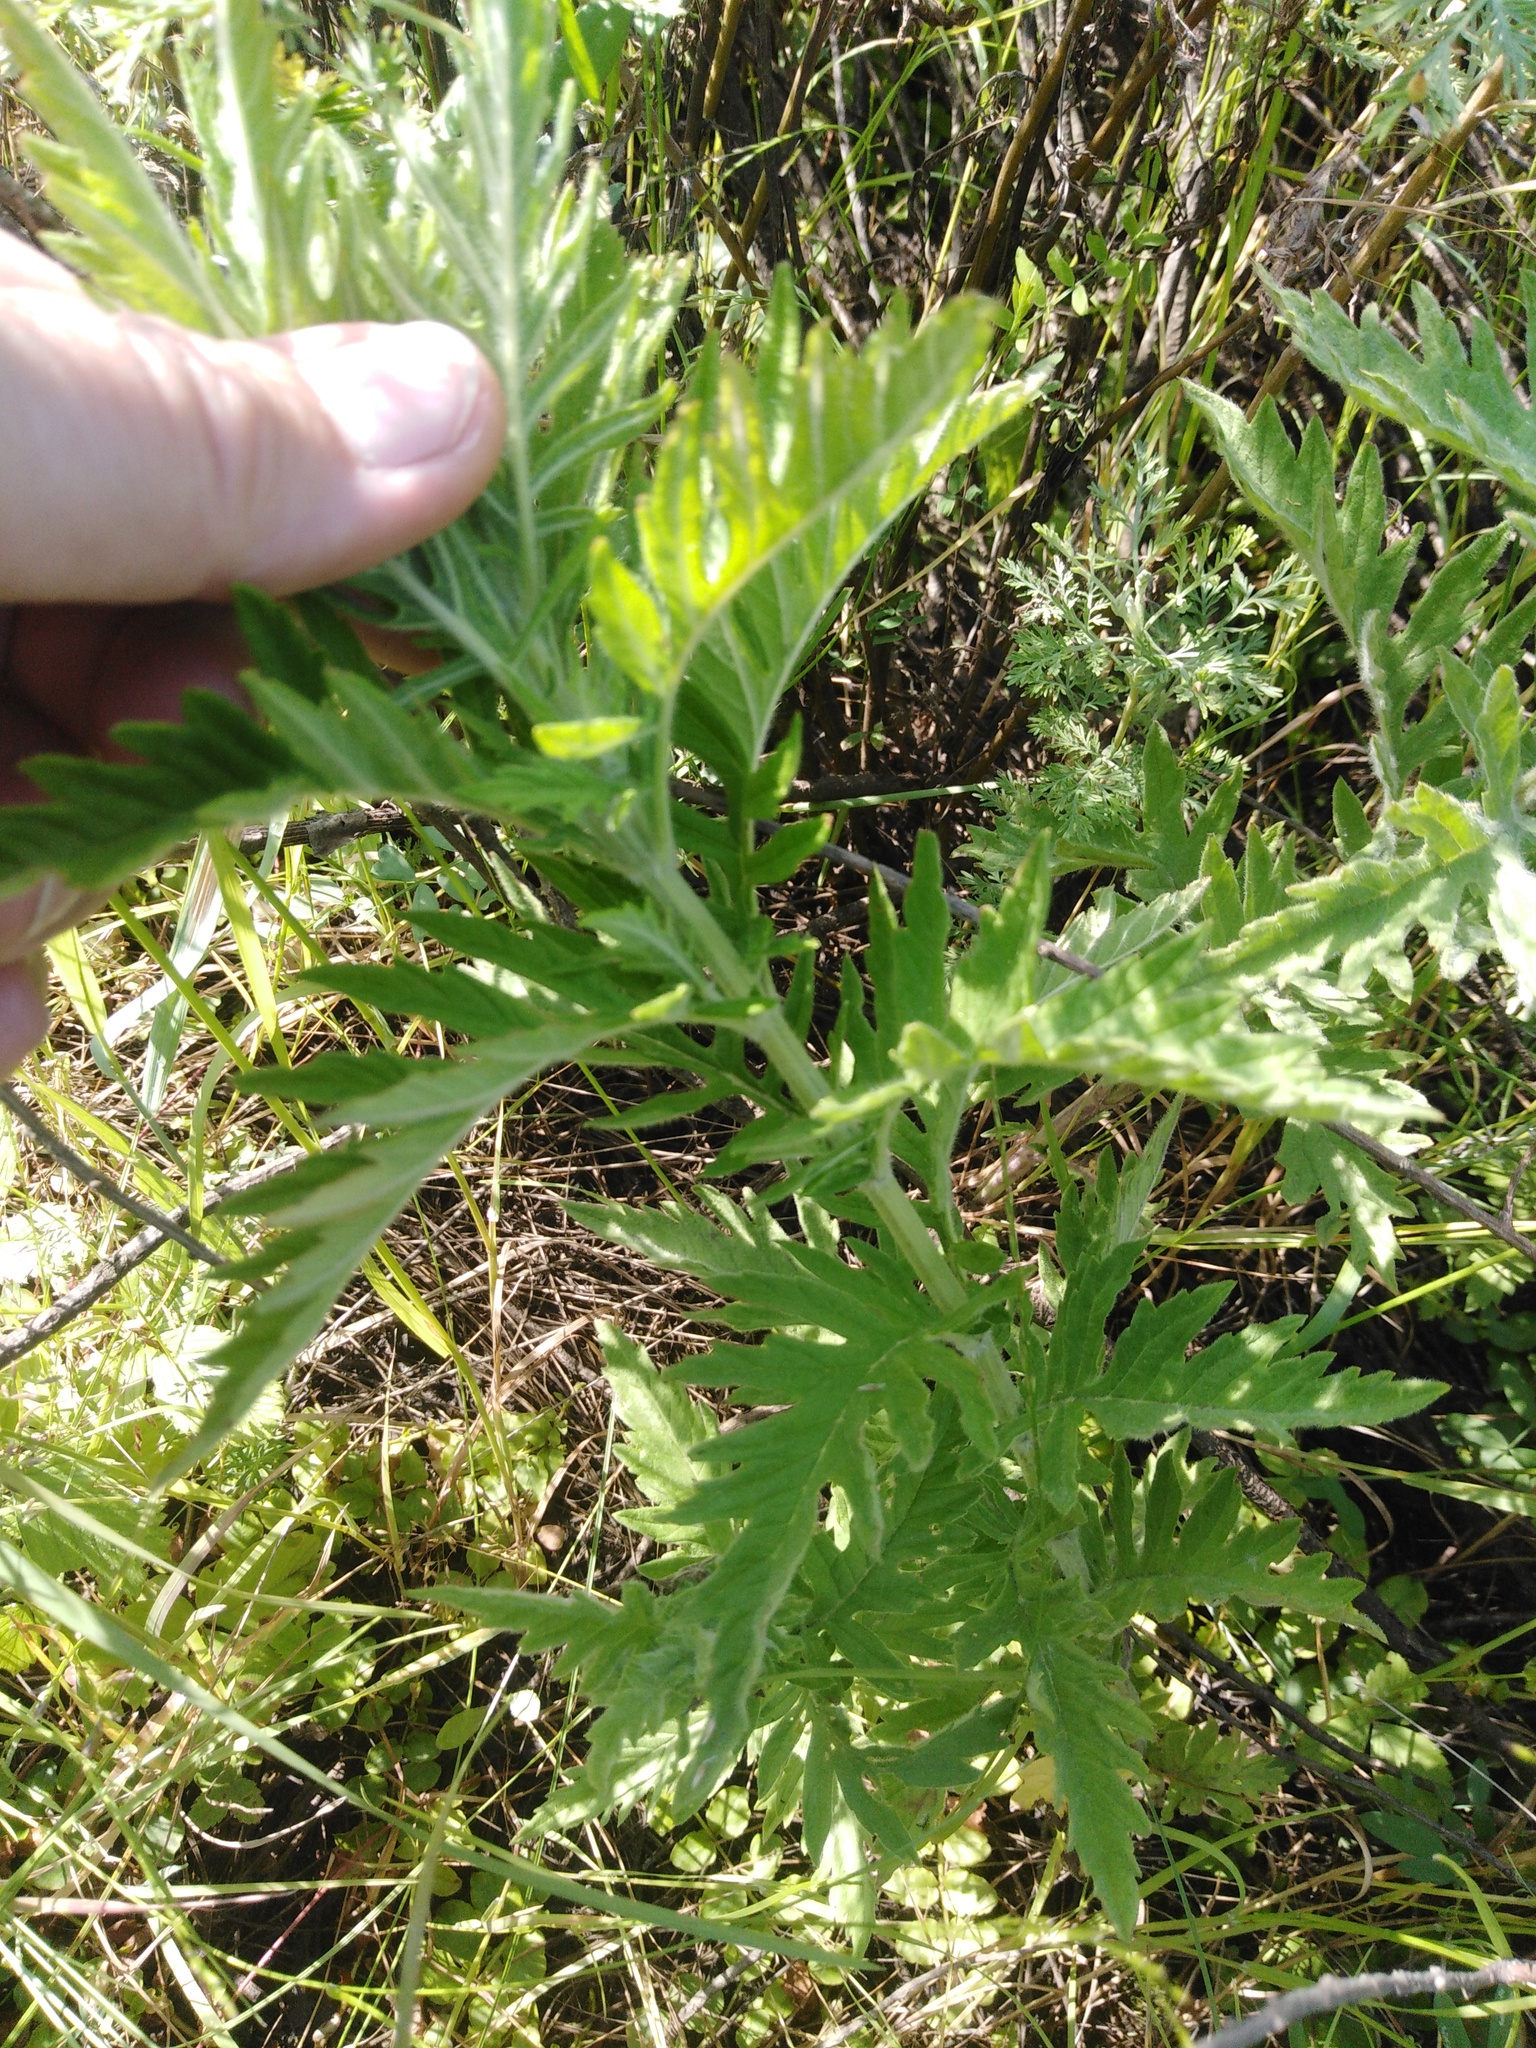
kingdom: Plantae
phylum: Tracheophyta
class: Magnoliopsida
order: Lamiales
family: Lamiaceae
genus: Lycopus
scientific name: Lycopus exaltatus
